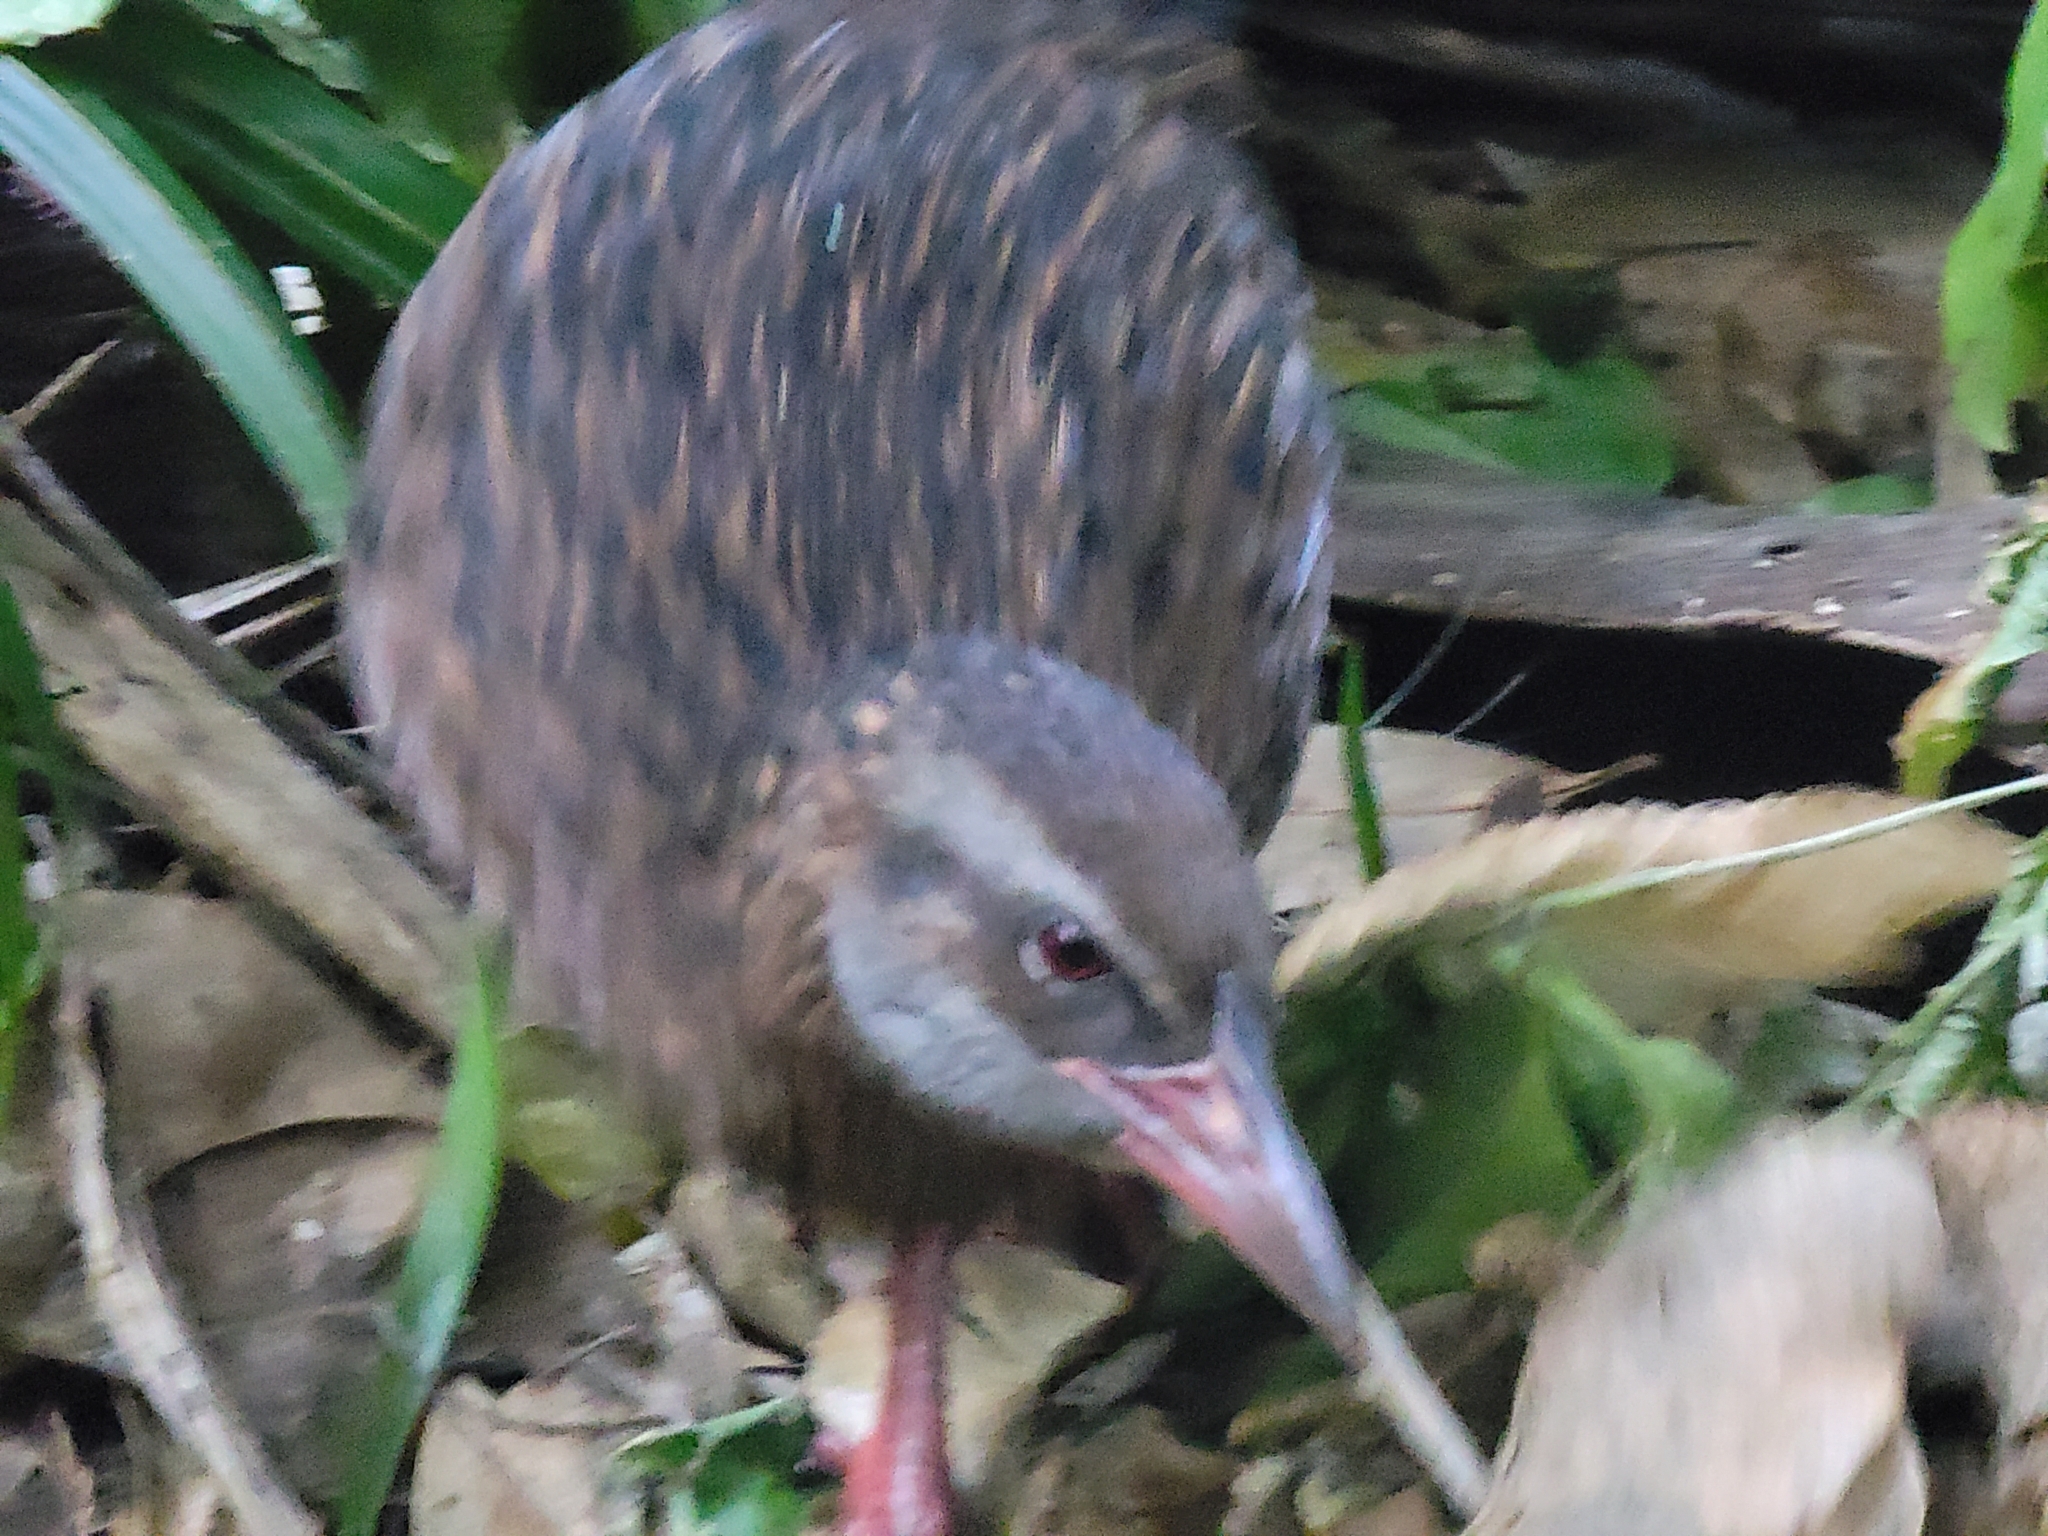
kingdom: Animalia
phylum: Chordata
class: Aves
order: Gruiformes
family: Rallidae
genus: Gallirallus
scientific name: Gallirallus australis
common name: Weka
